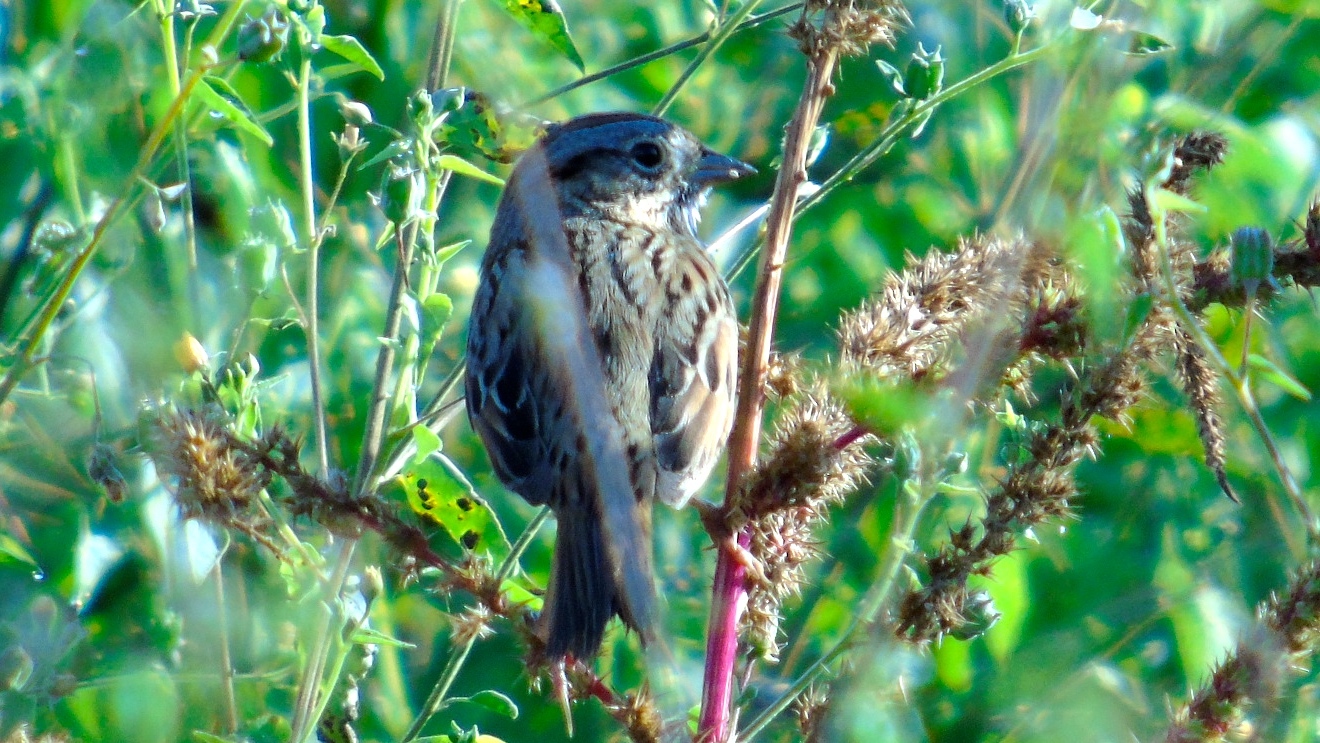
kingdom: Animalia
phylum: Chordata
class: Aves
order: Passeriformes
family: Passerellidae
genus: Melospiza
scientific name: Melospiza lincolnii
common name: Lincoln's sparrow
